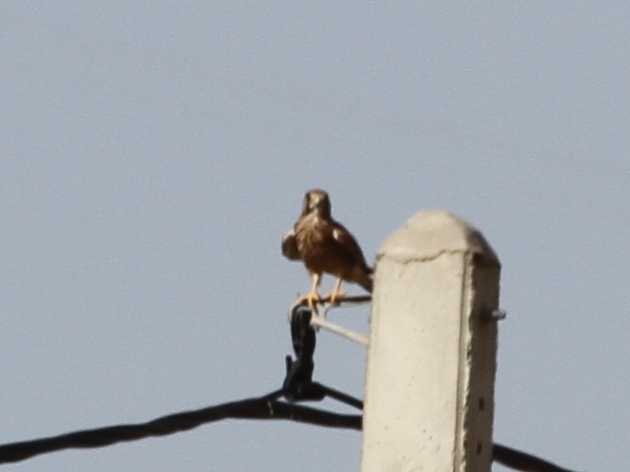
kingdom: Animalia
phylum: Chordata
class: Aves
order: Falconiformes
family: Falconidae
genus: Falco
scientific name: Falco tinnunculus
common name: Common kestrel
